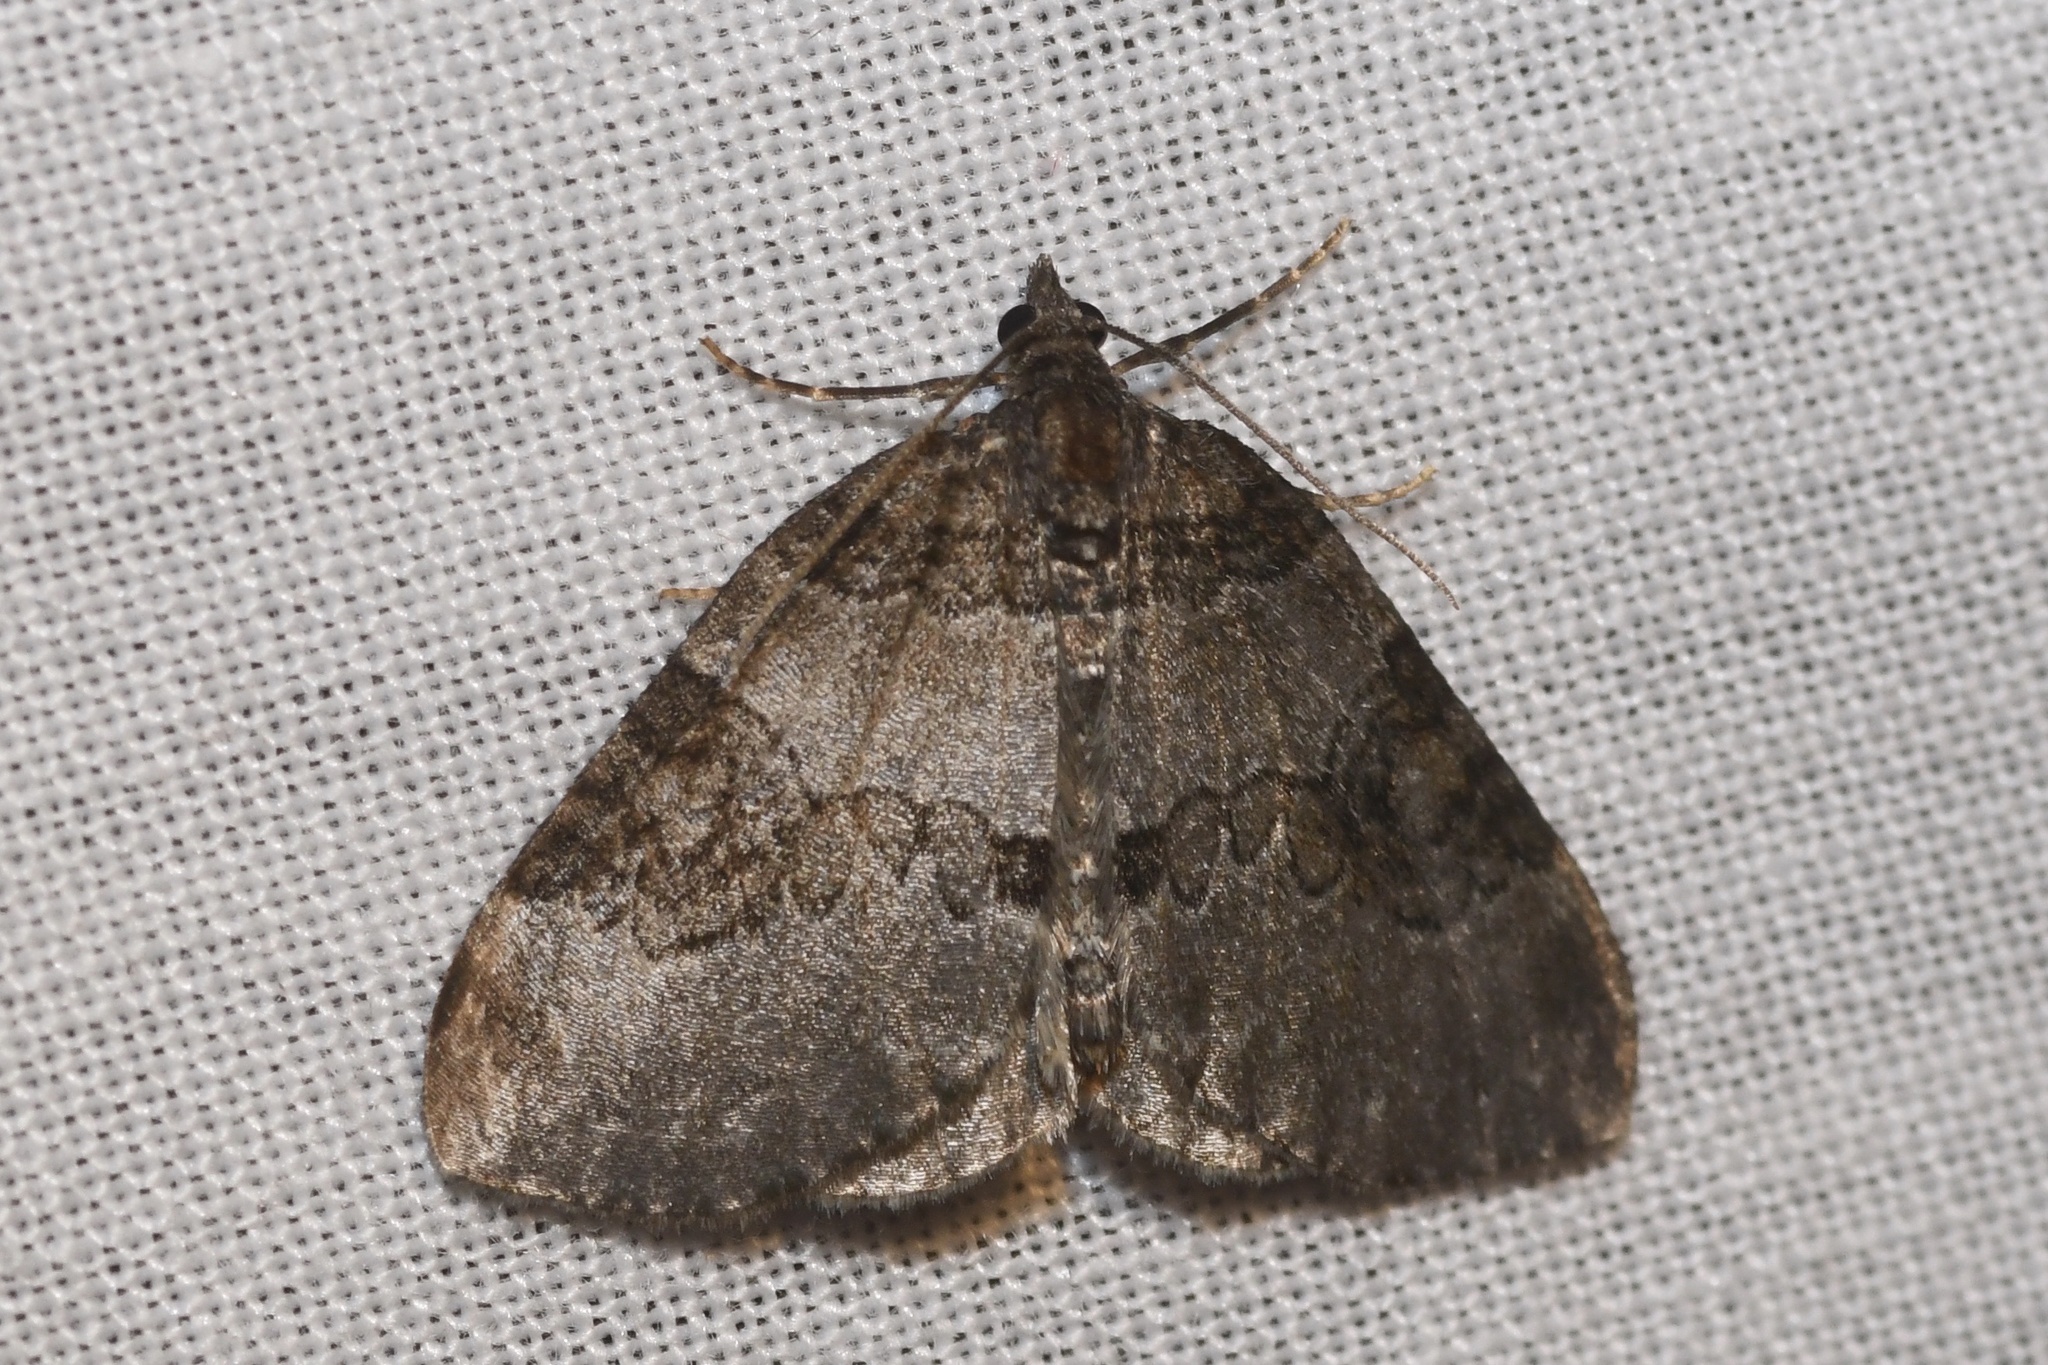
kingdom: Animalia
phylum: Arthropoda
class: Insecta
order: Lepidoptera
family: Geometridae
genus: Plemyria
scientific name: Plemyria georgii
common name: George's carpet moth
